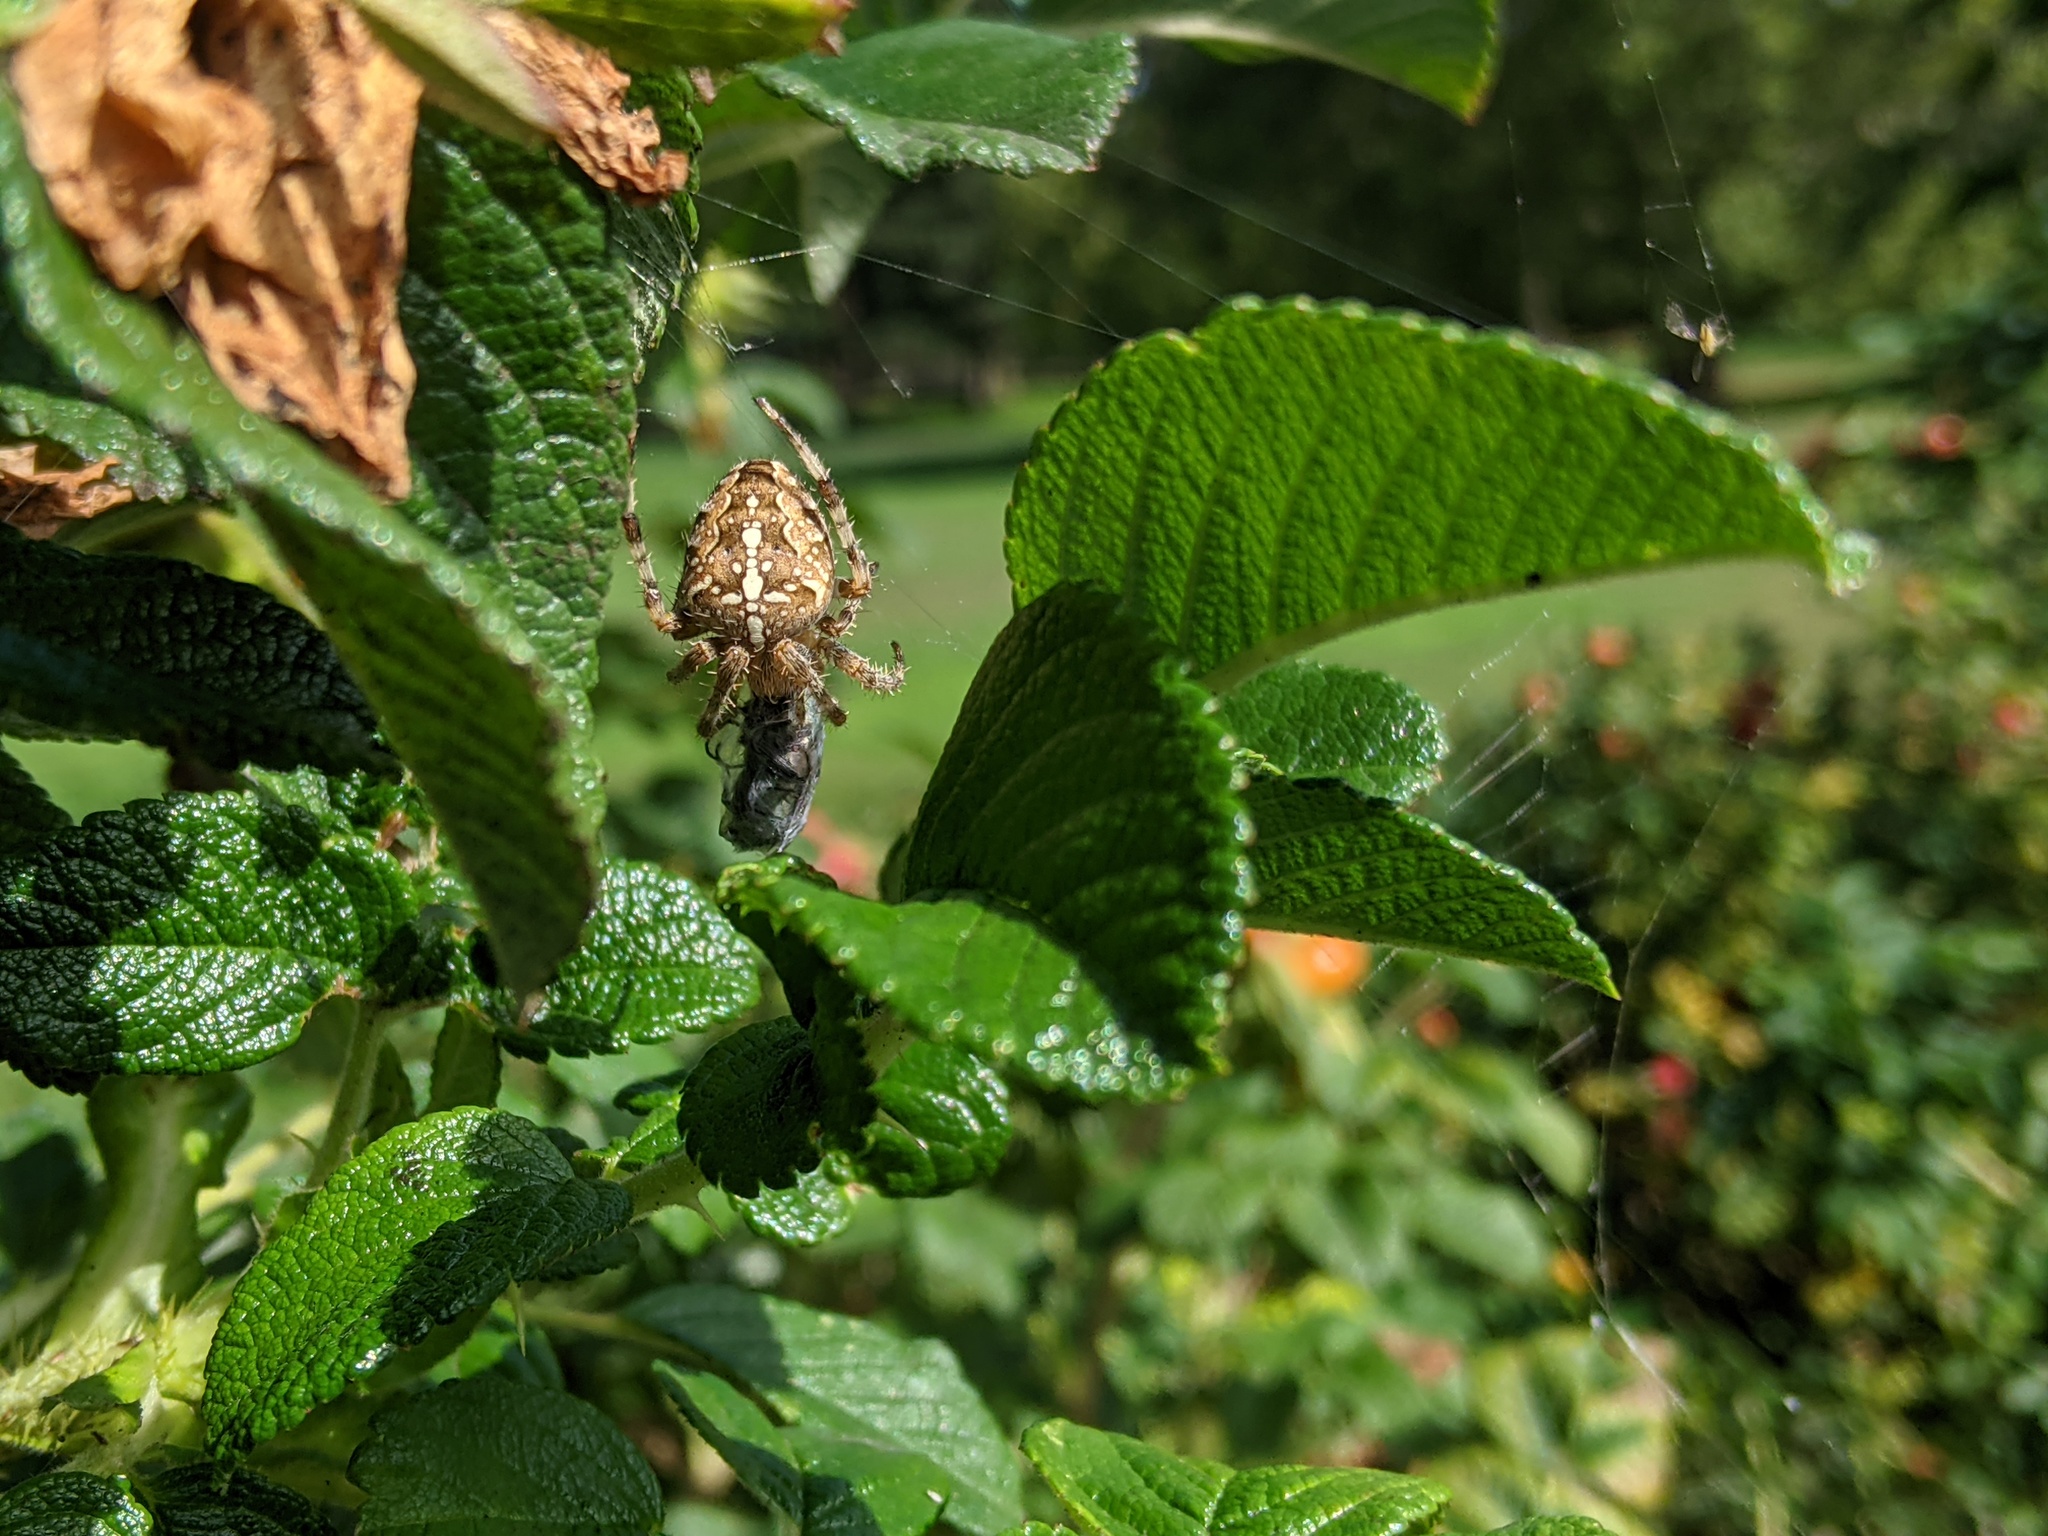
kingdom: Animalia
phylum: Arthropoda
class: Arachnida
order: Araneae
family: Araneidae
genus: Araneus
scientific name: Araneus diadematus
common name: Cross orbweaver
